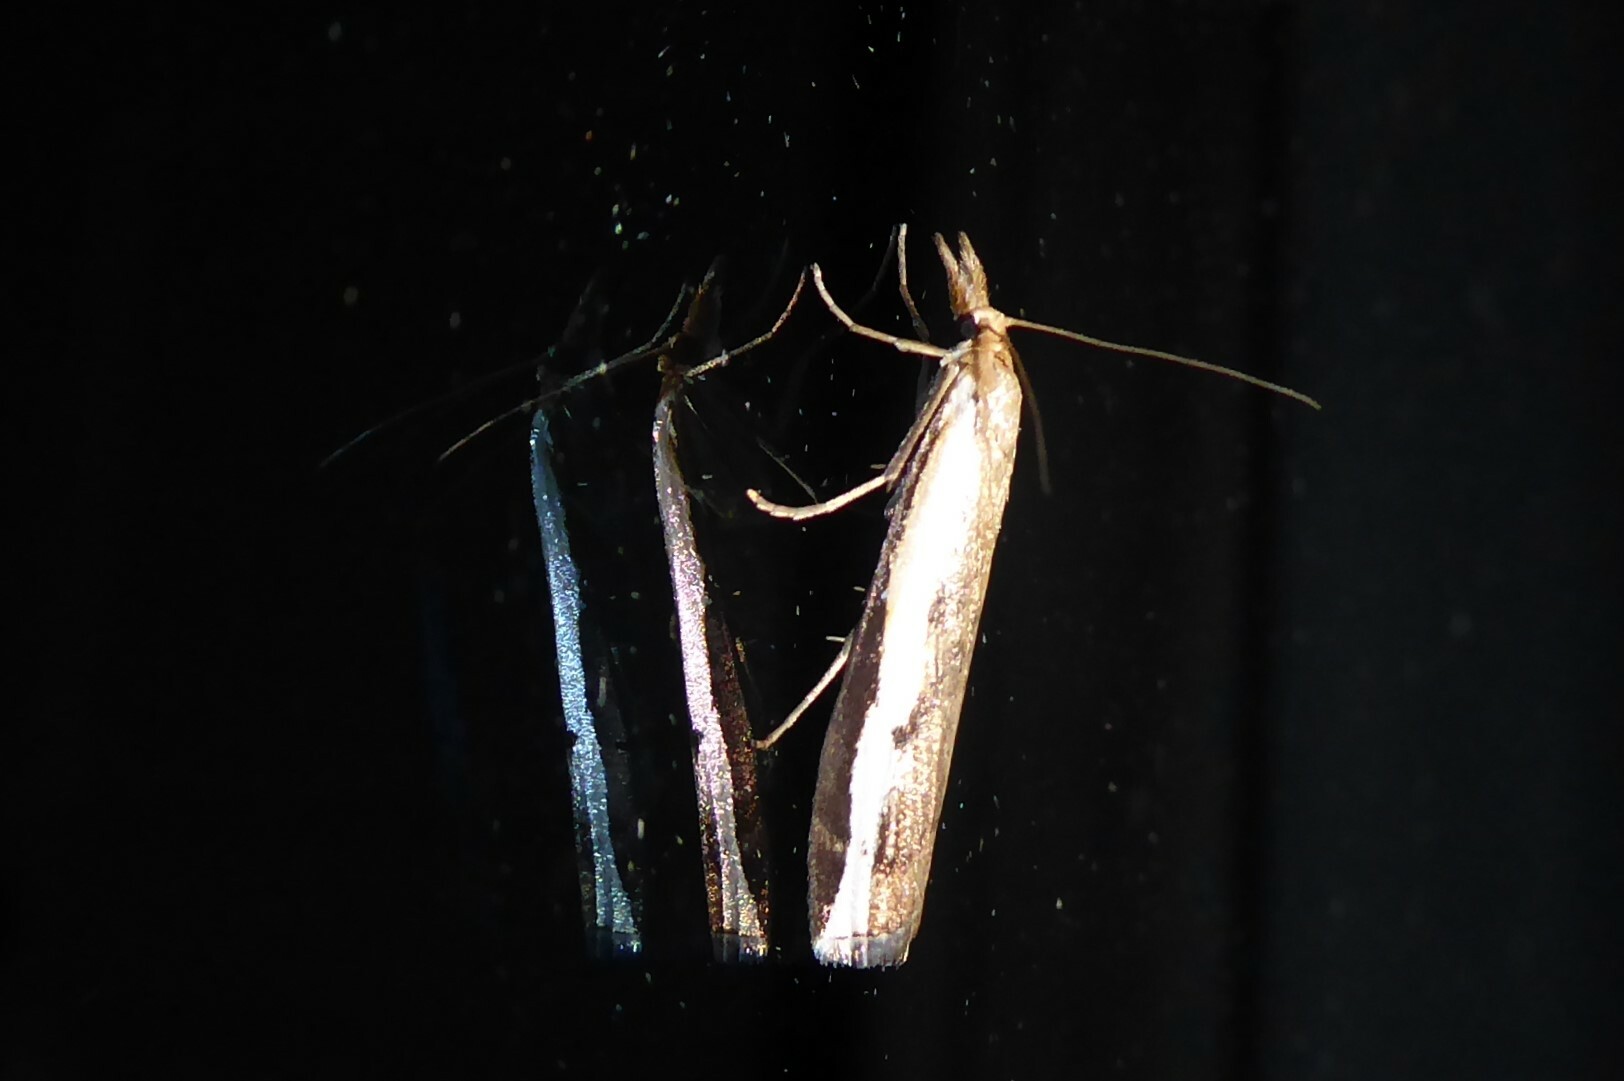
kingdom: Animalia
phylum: Arthropoda
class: Insecta
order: Lepidoptera
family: Crambidae
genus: Orocrambus
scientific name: Orocrambus flexuosellus
